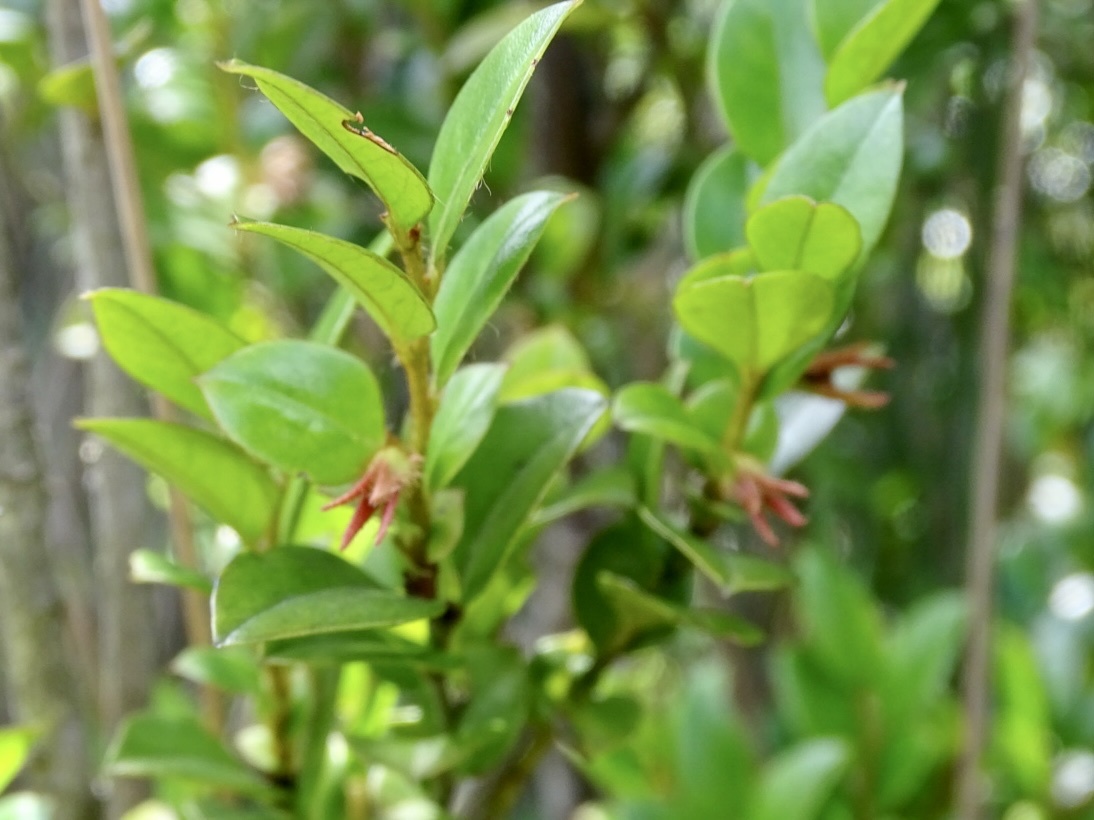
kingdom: Plantae
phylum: Tracheophyta
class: Magnoliopsida
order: Ericales
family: Ebenaceae
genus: Diospyros
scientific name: Diospyros vaccinioides
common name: Small persimmon
